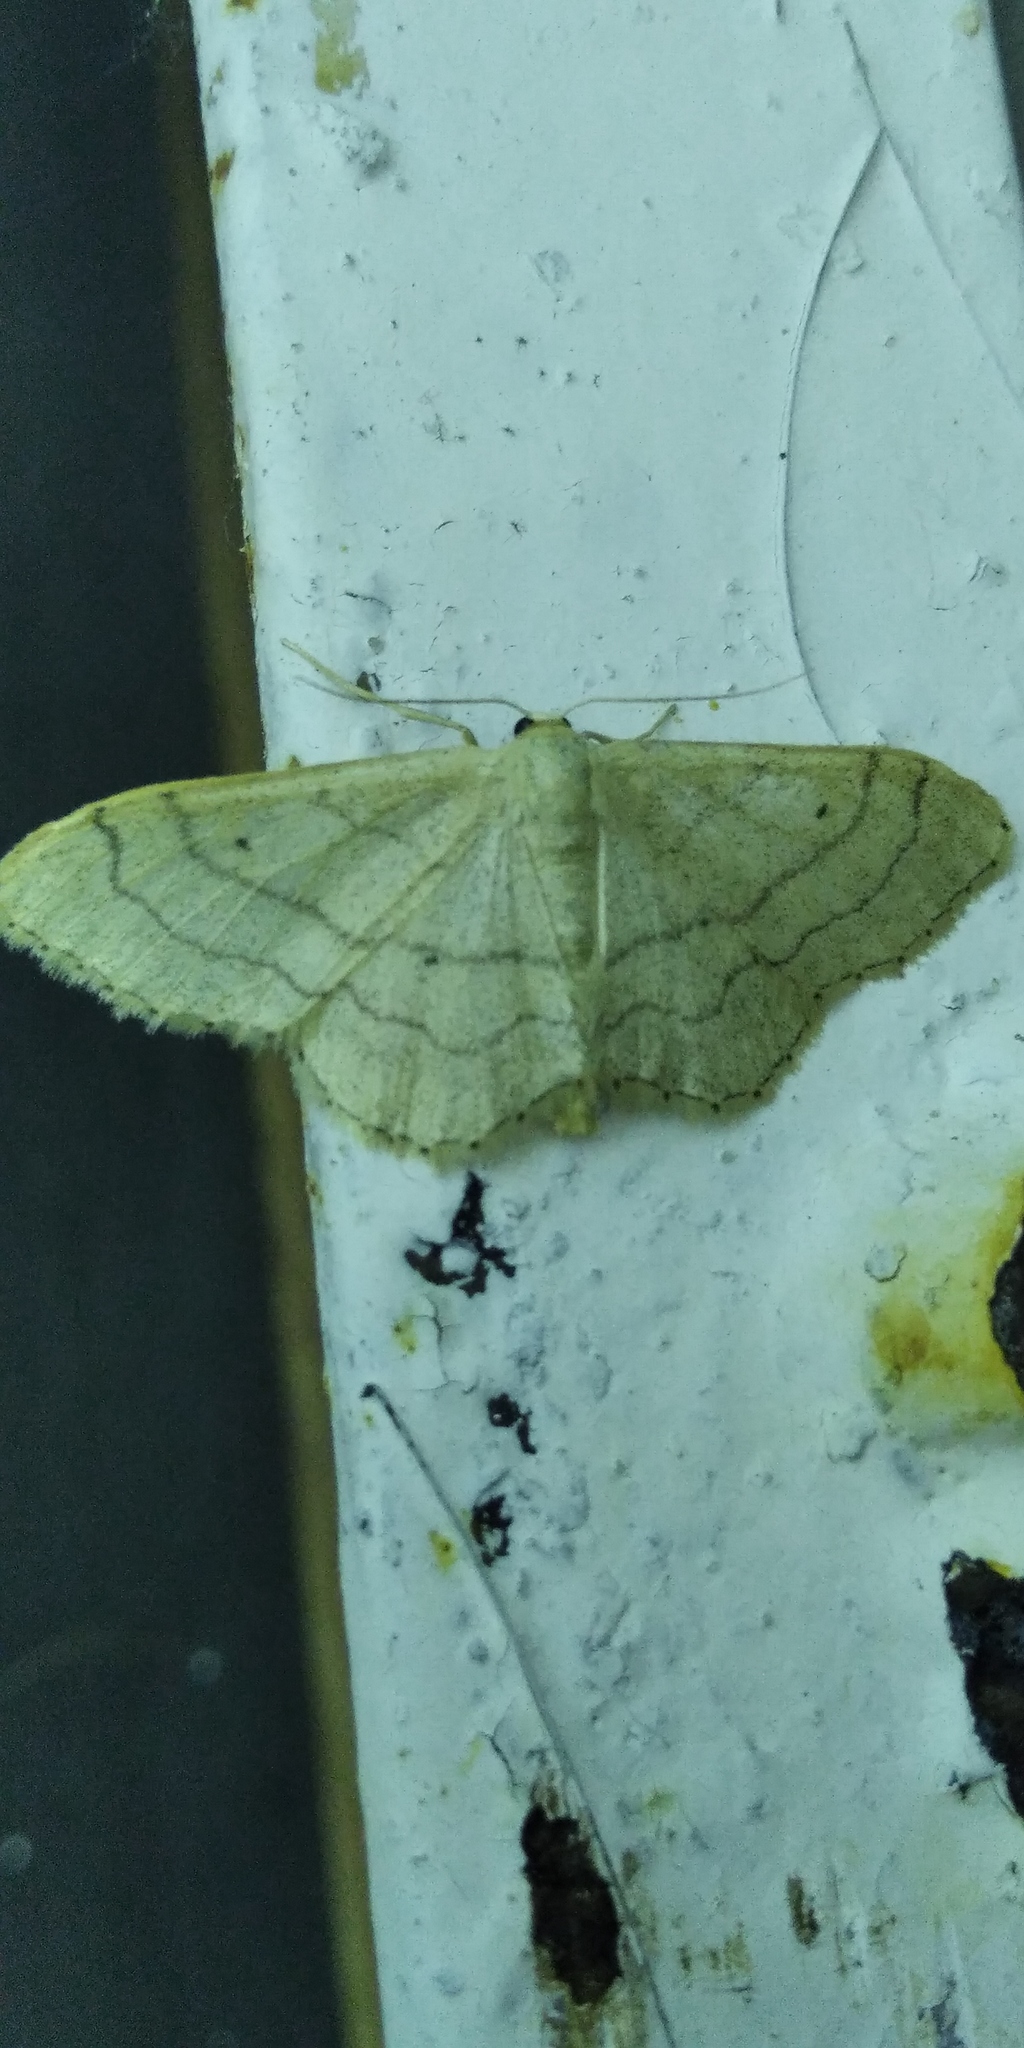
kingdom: Animalia
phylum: Arthropoda
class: Insecta
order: Lepidoptera
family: Geometridae
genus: Idaea
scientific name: Idaea aversata
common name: Riband wave
